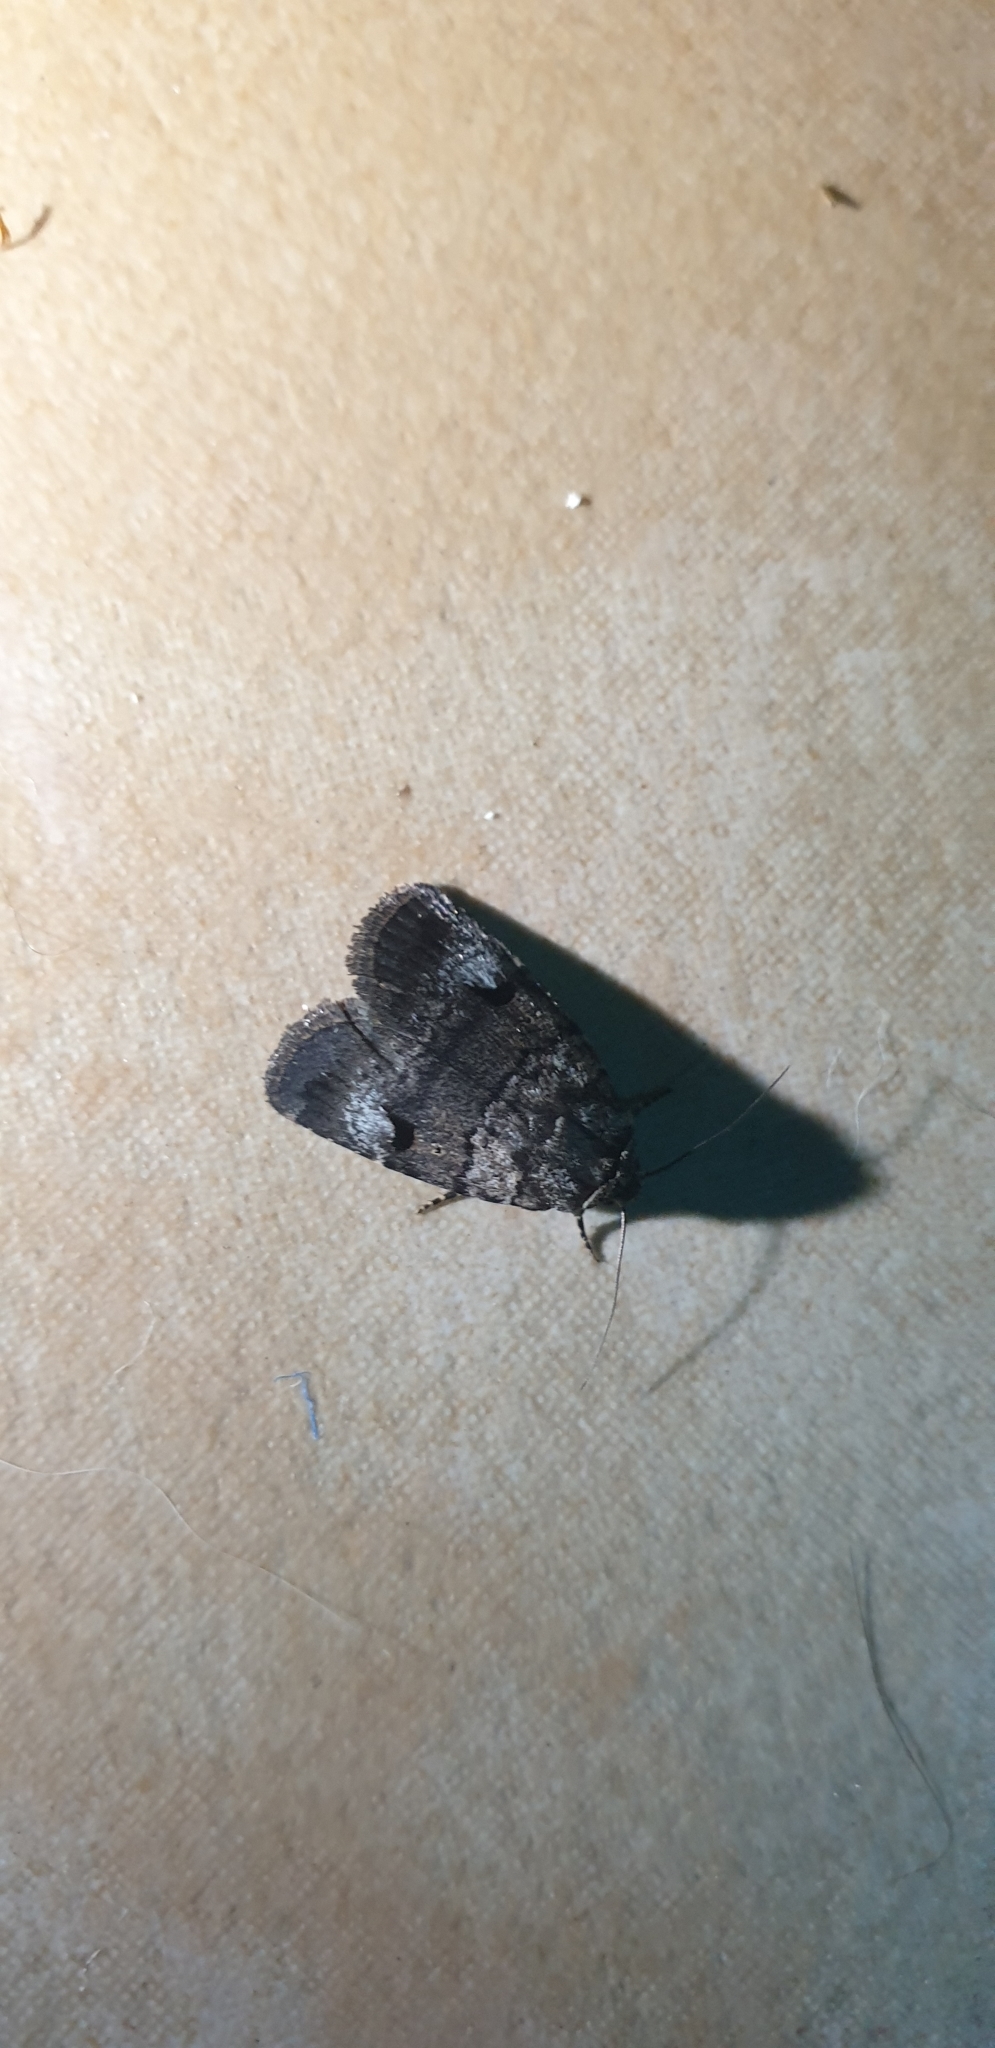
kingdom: Animalia
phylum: Arthropoda
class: Insecta
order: Lepidoptera
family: Noctuidae
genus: Thoracolopha
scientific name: Thoracolopha flexirena
